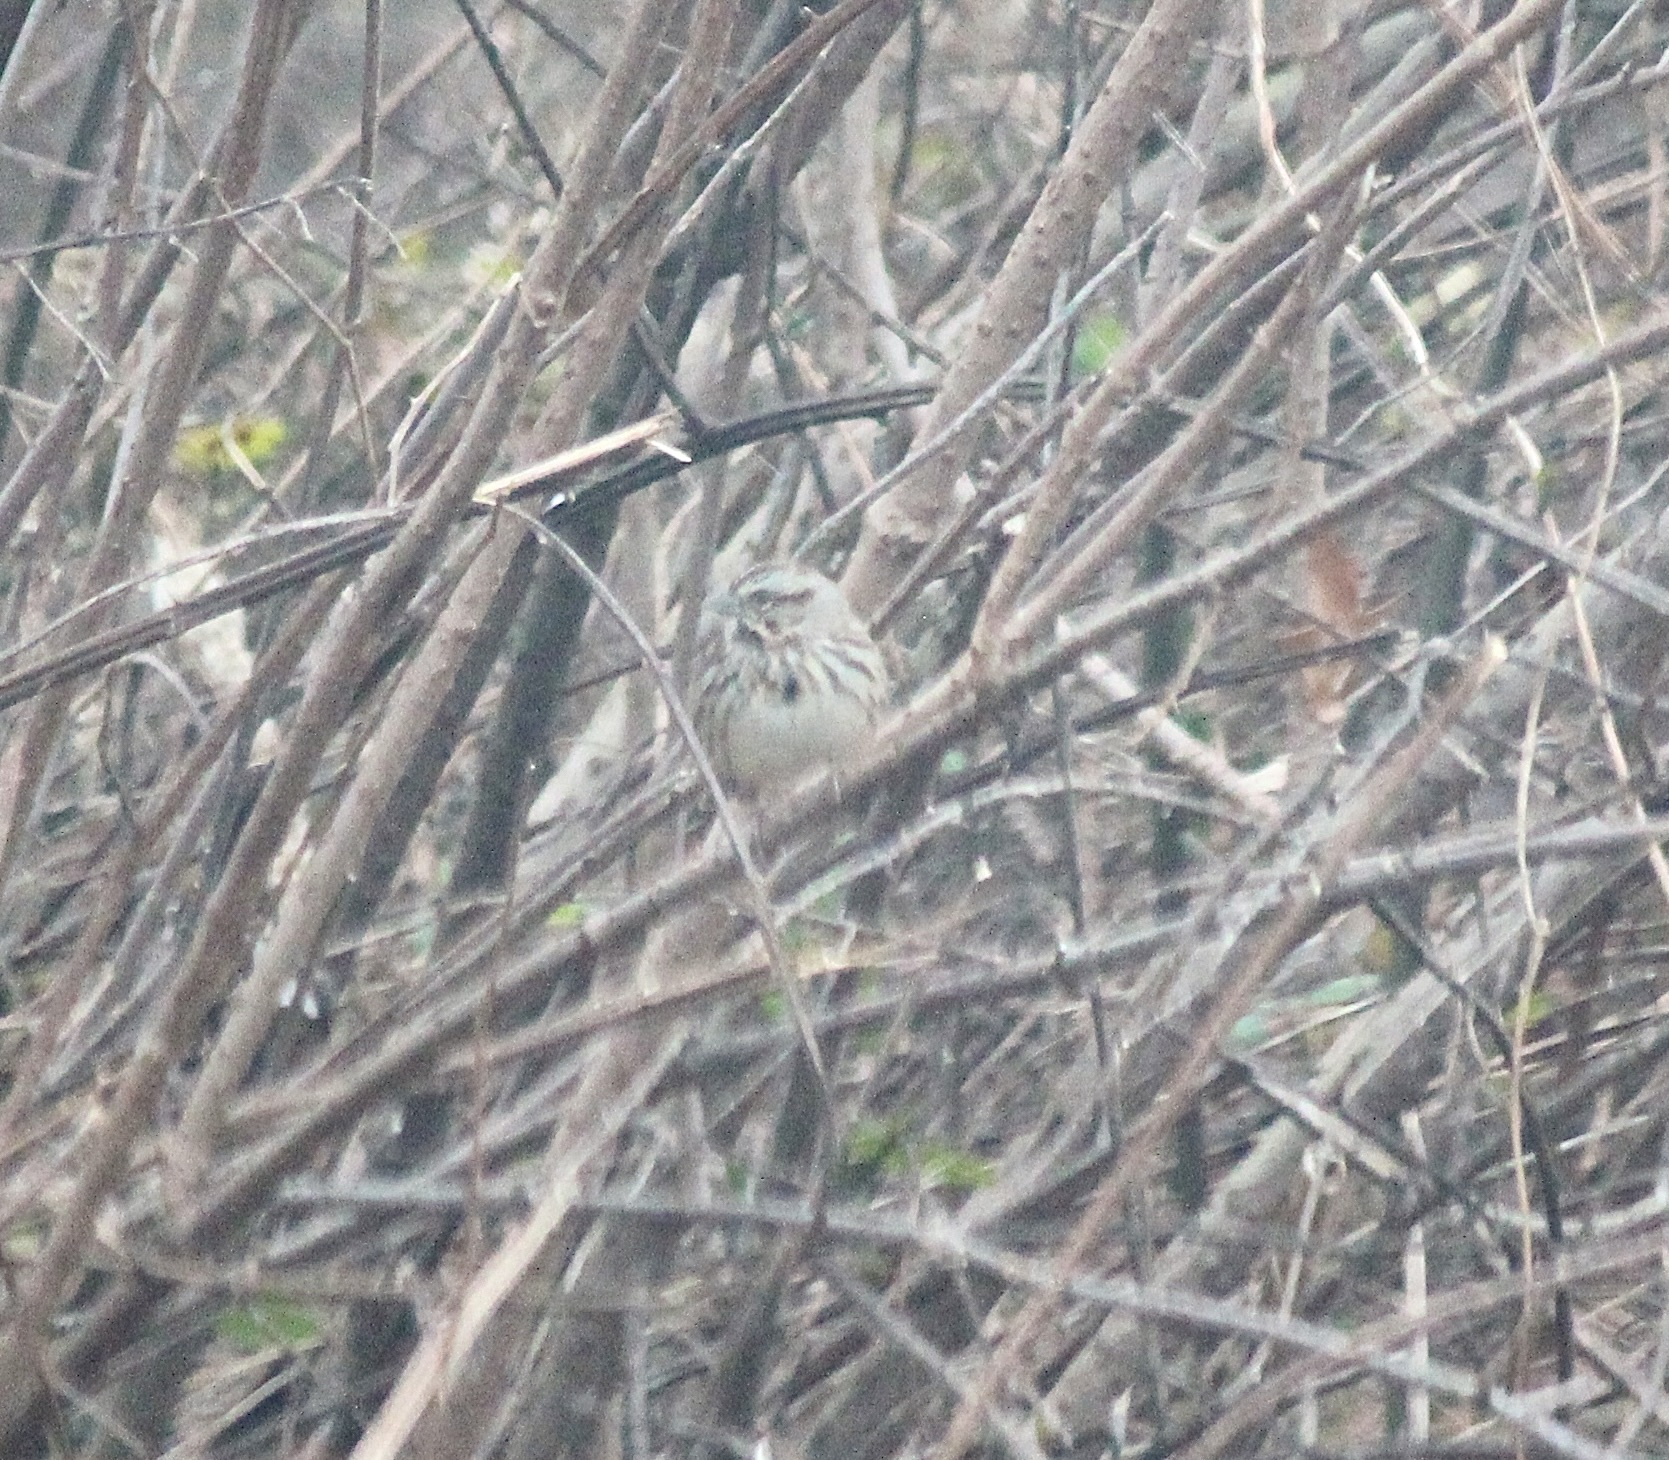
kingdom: Animalia
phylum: Chordata
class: Aves
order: Passeriformes
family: Passerellidae
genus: Melospiza
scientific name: Melospiza melodia
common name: Song sparrow
